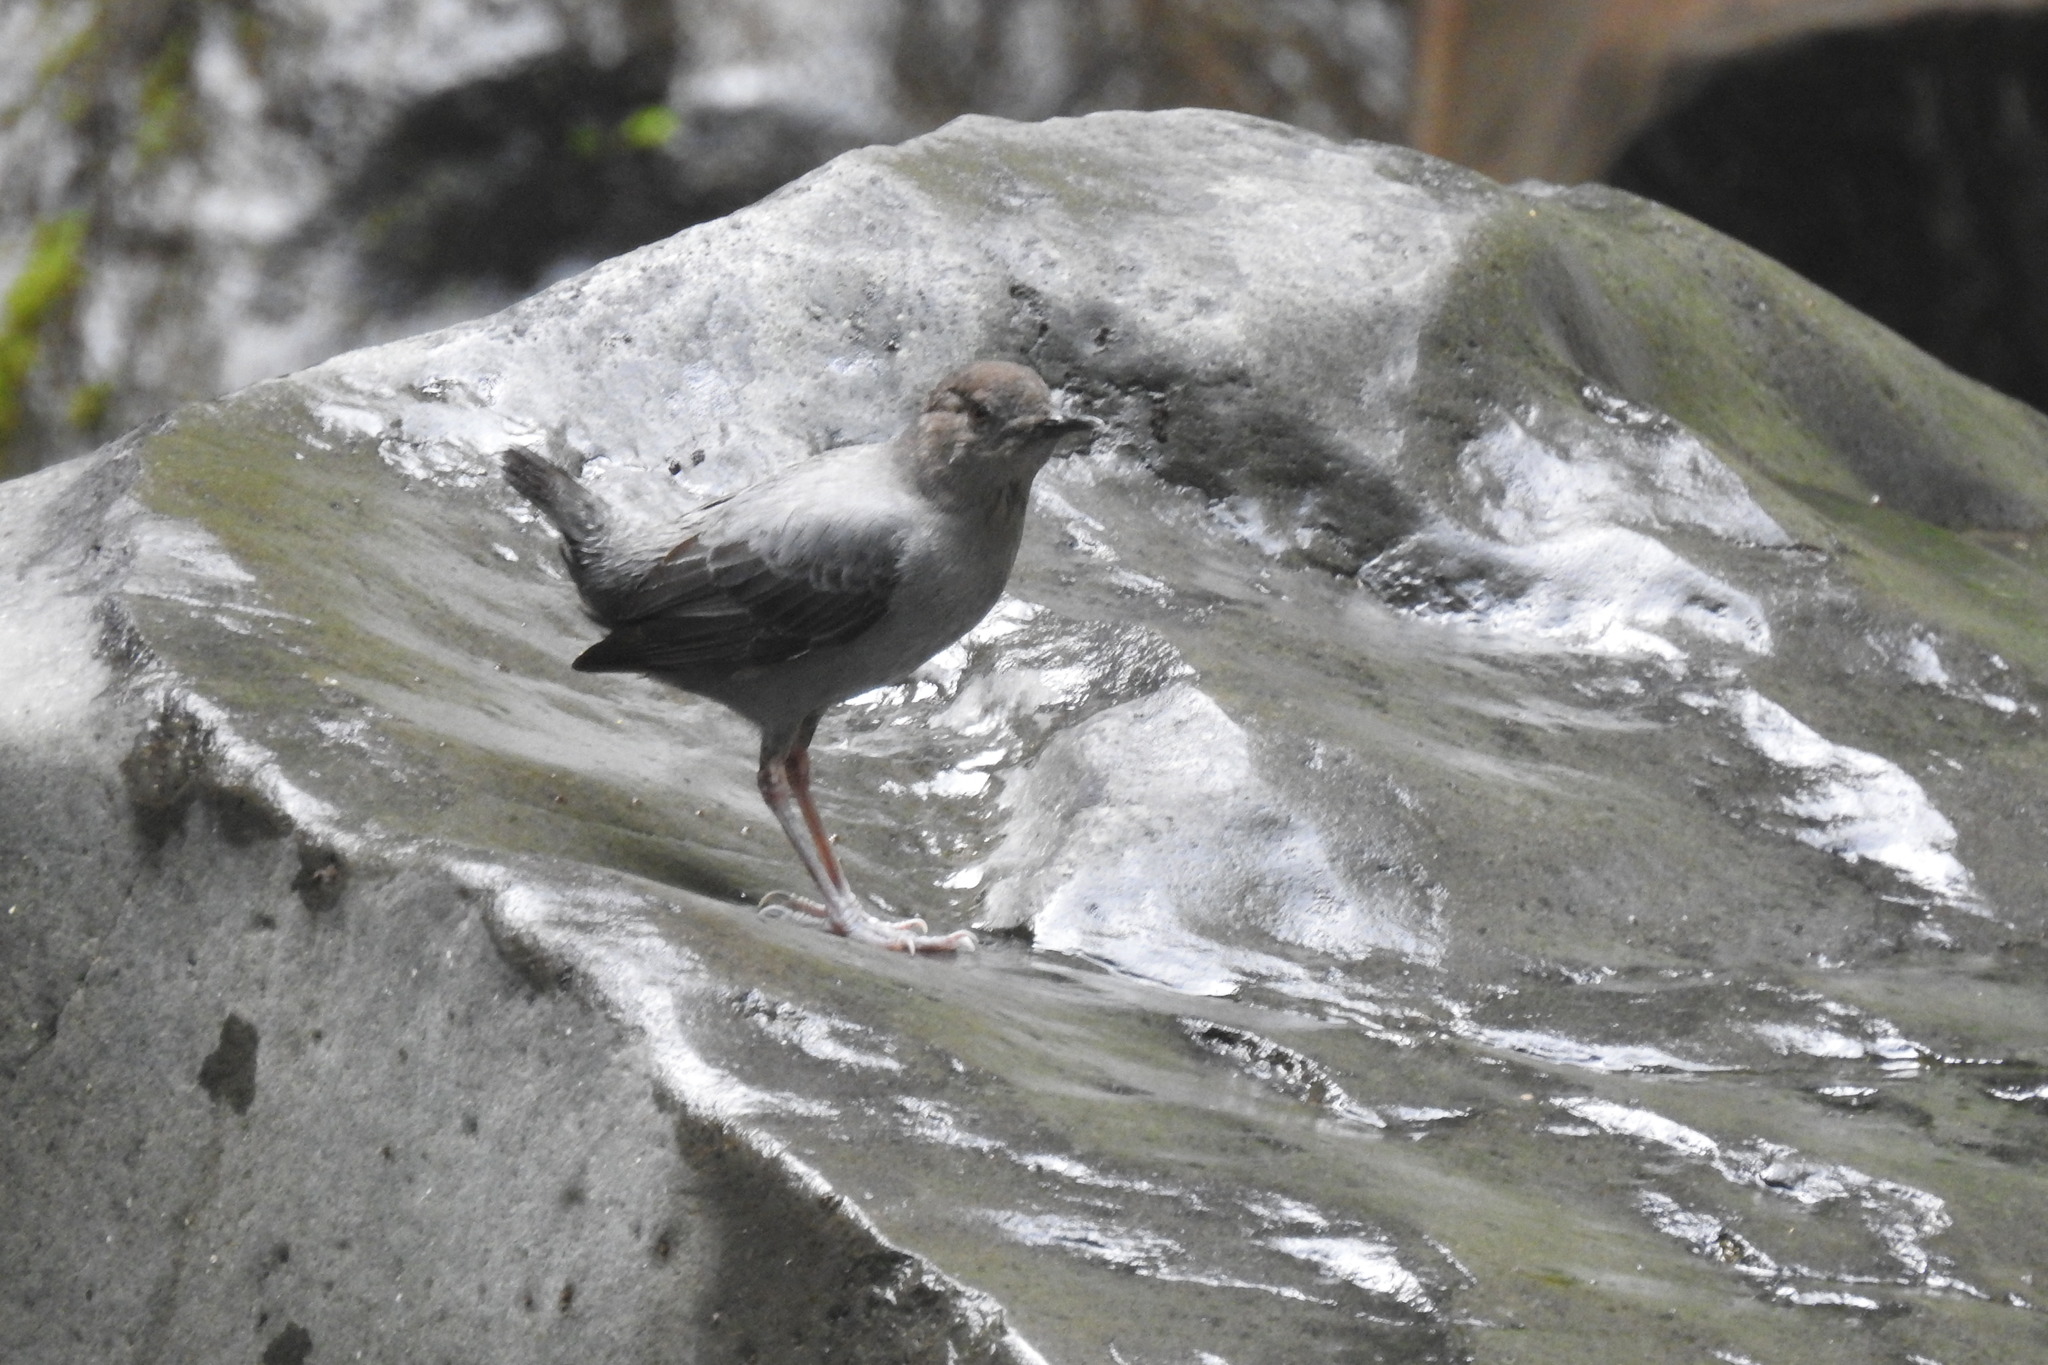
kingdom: Animalia
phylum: Chordata
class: Aves
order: Passeriformes
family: Cinclidae
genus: Cinclus
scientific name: Cinclus mexicanus
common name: American dipper
